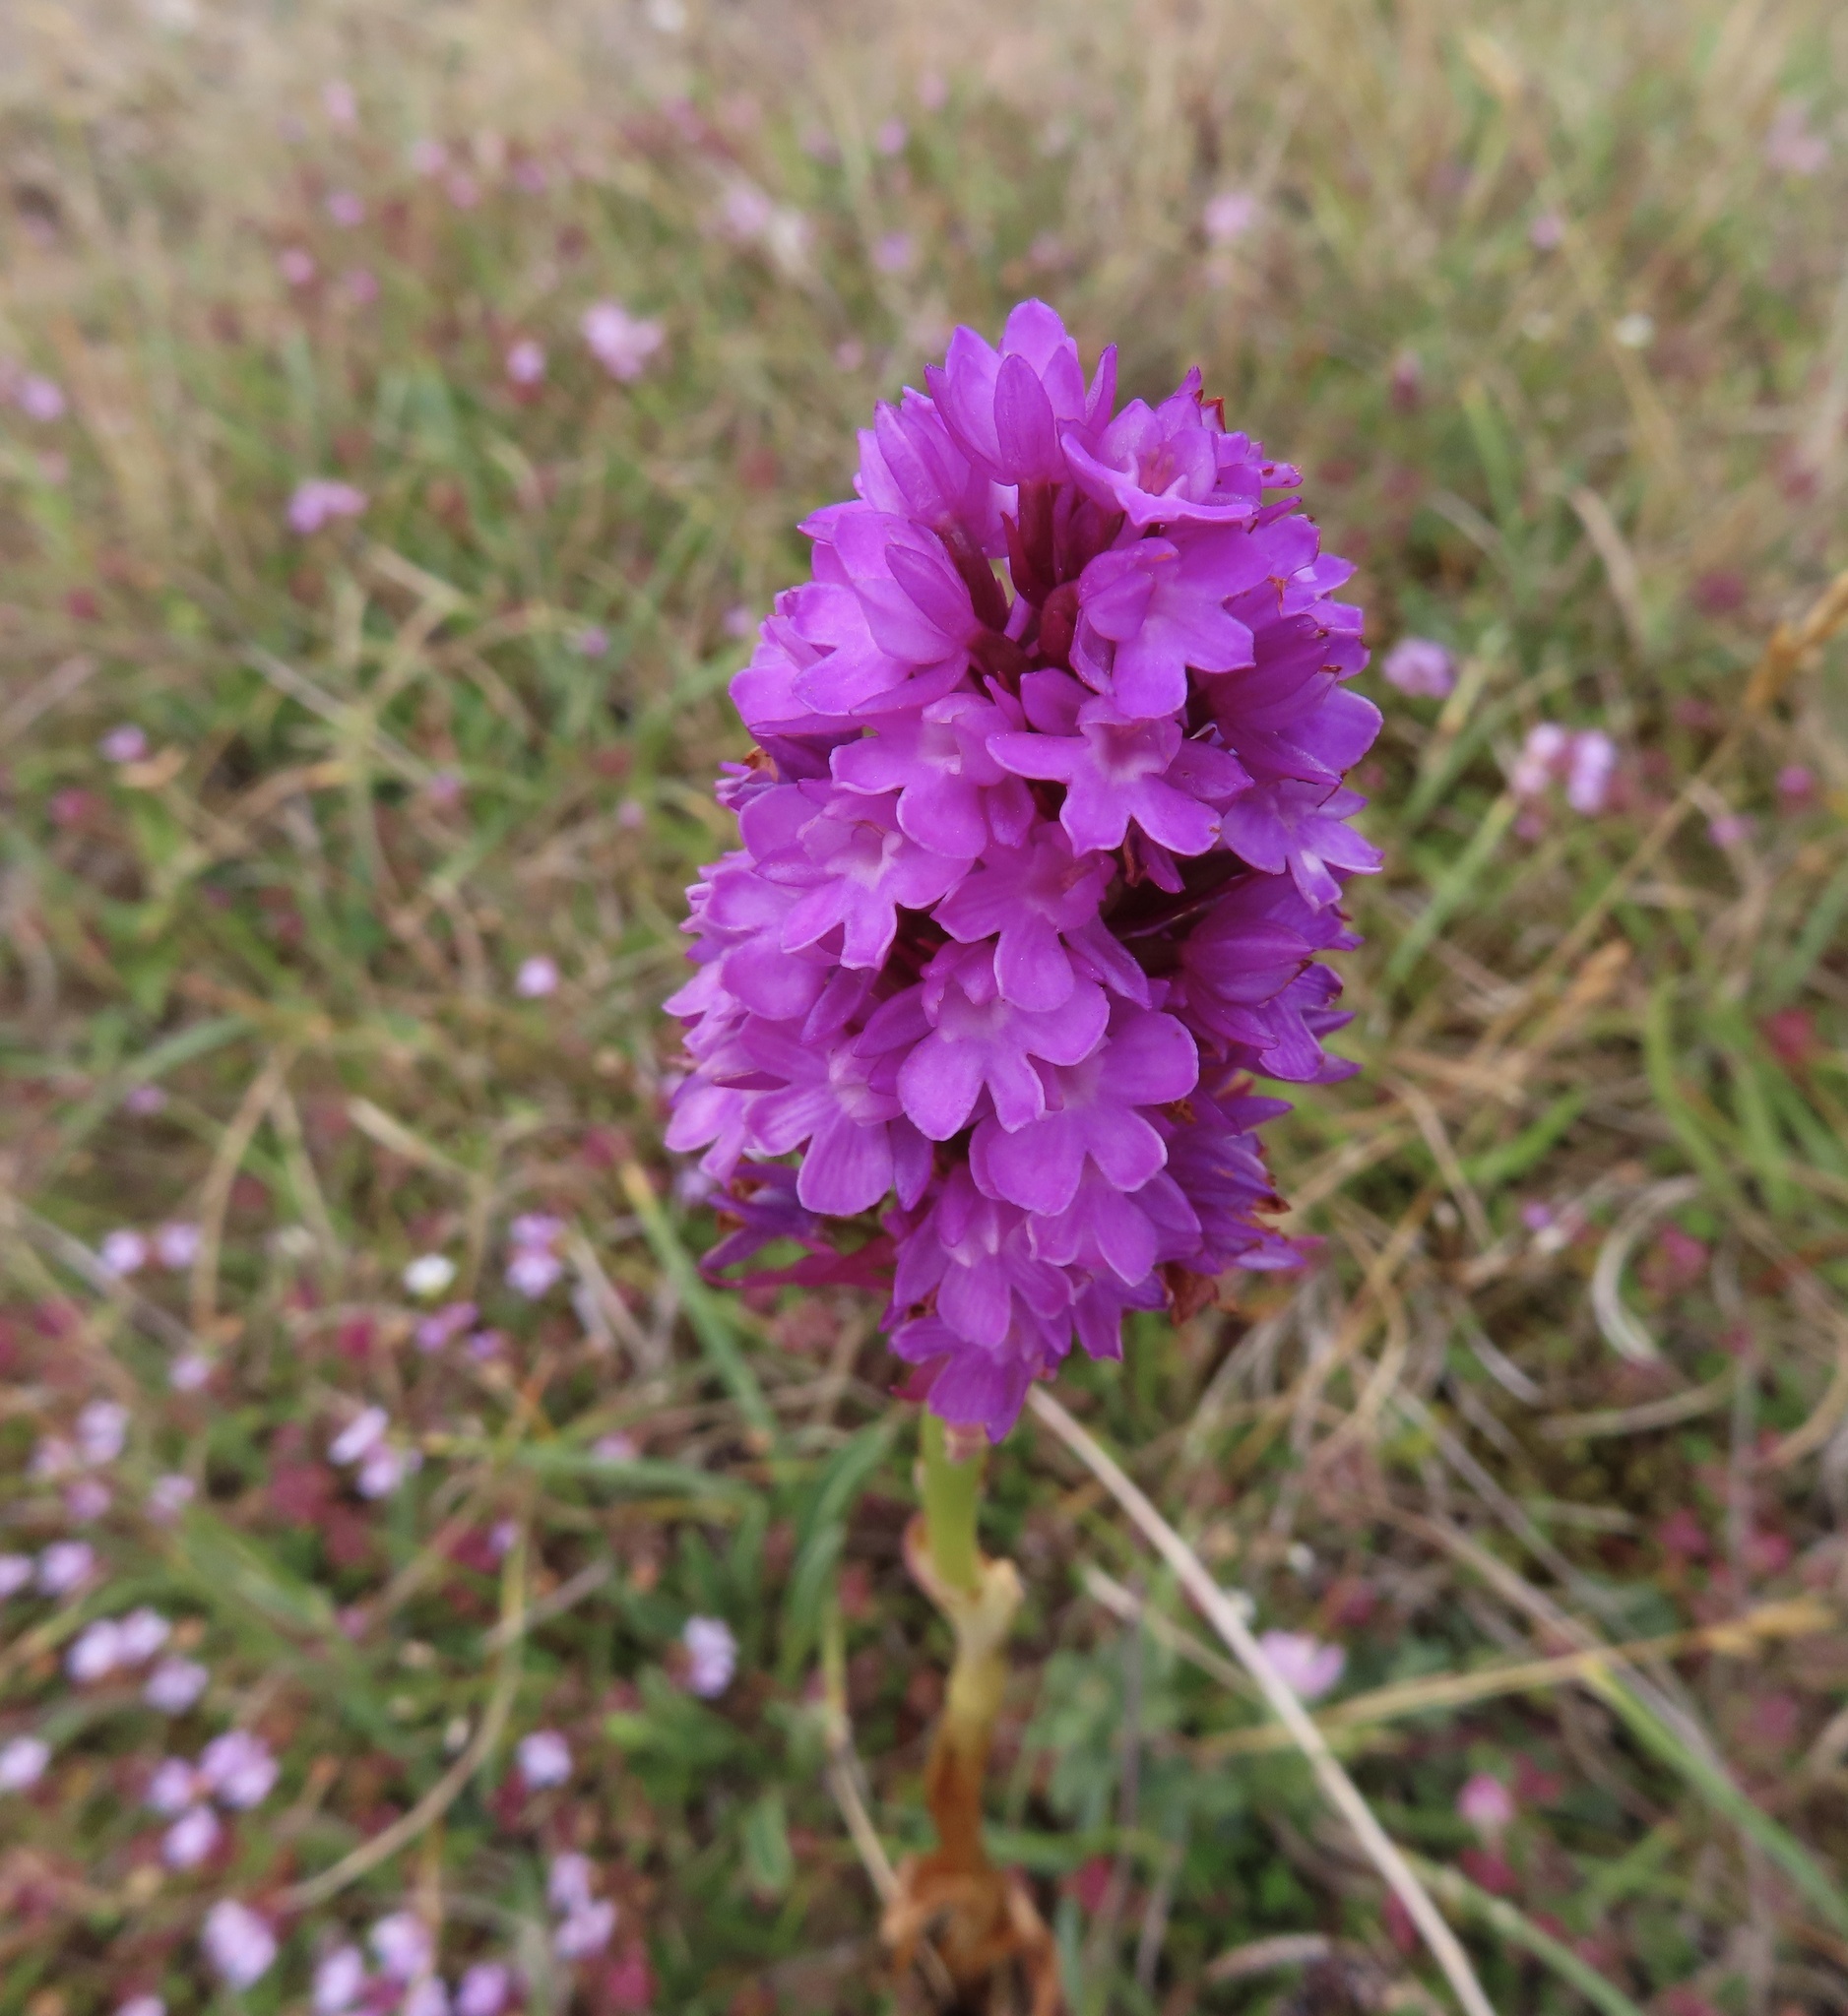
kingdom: Plantae
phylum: Tracheophyta
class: Liliopsida
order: Asparagales
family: Orchidaceae
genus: Anacamptis
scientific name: Anacamptis pyramidalis
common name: Pyramidal orchid
